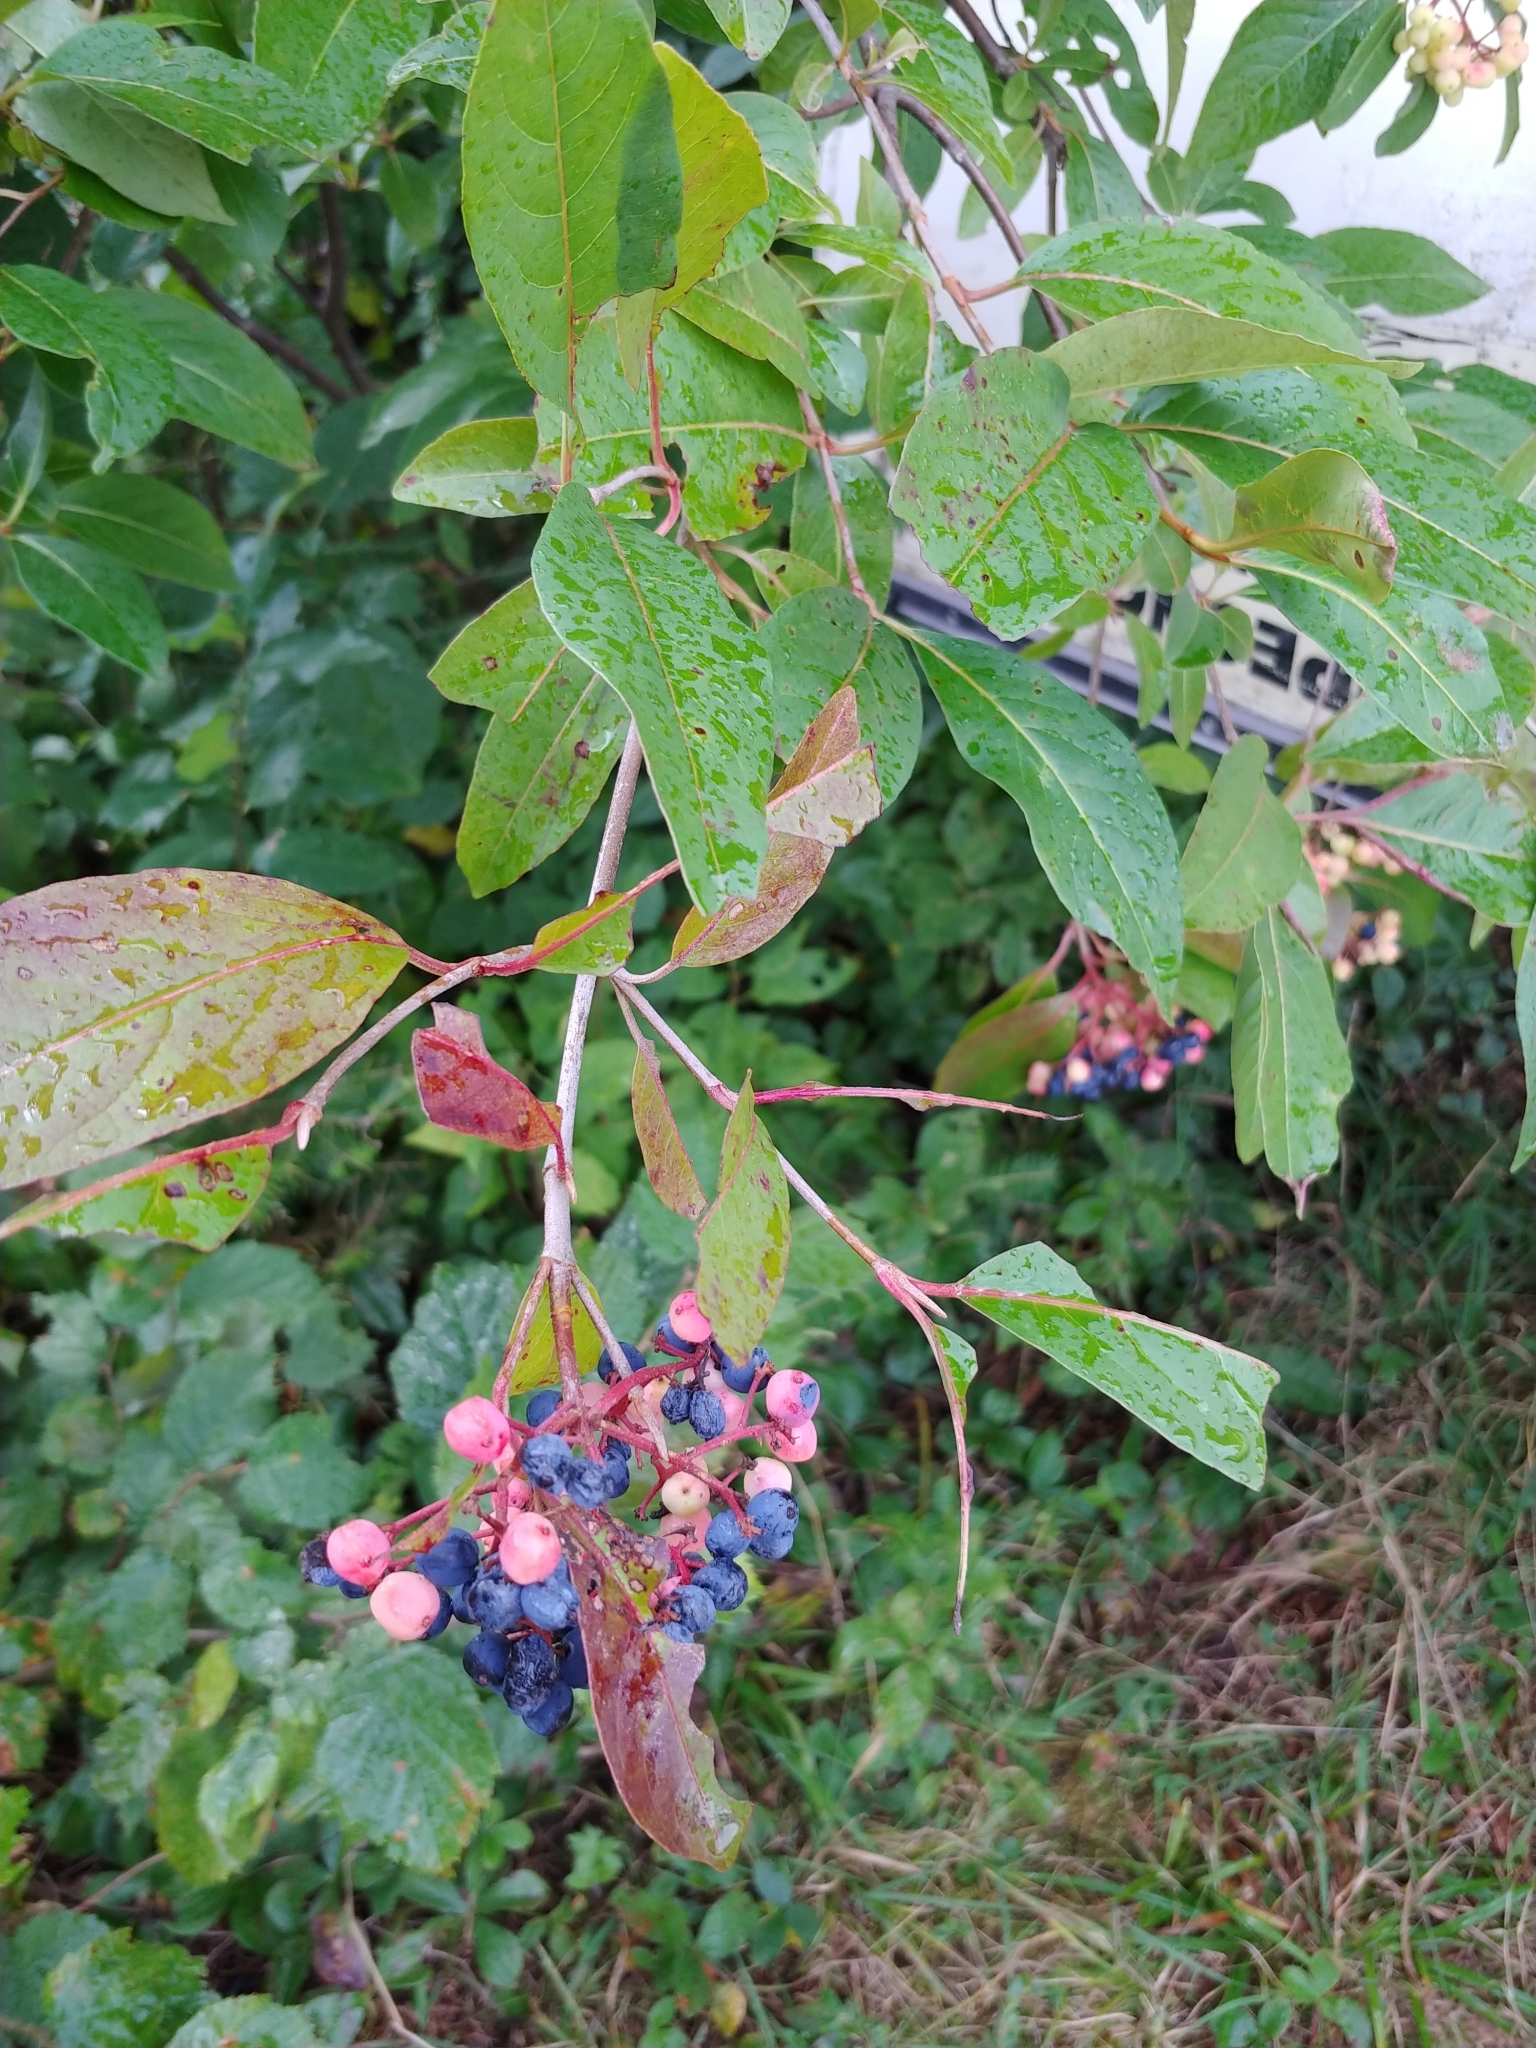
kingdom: Plantae
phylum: Tracheophyta
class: Magnoliopsida
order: Dipsacales
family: Viburnaceae
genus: Viburnum
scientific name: Viburnum cassinoides
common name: Swamp haw
